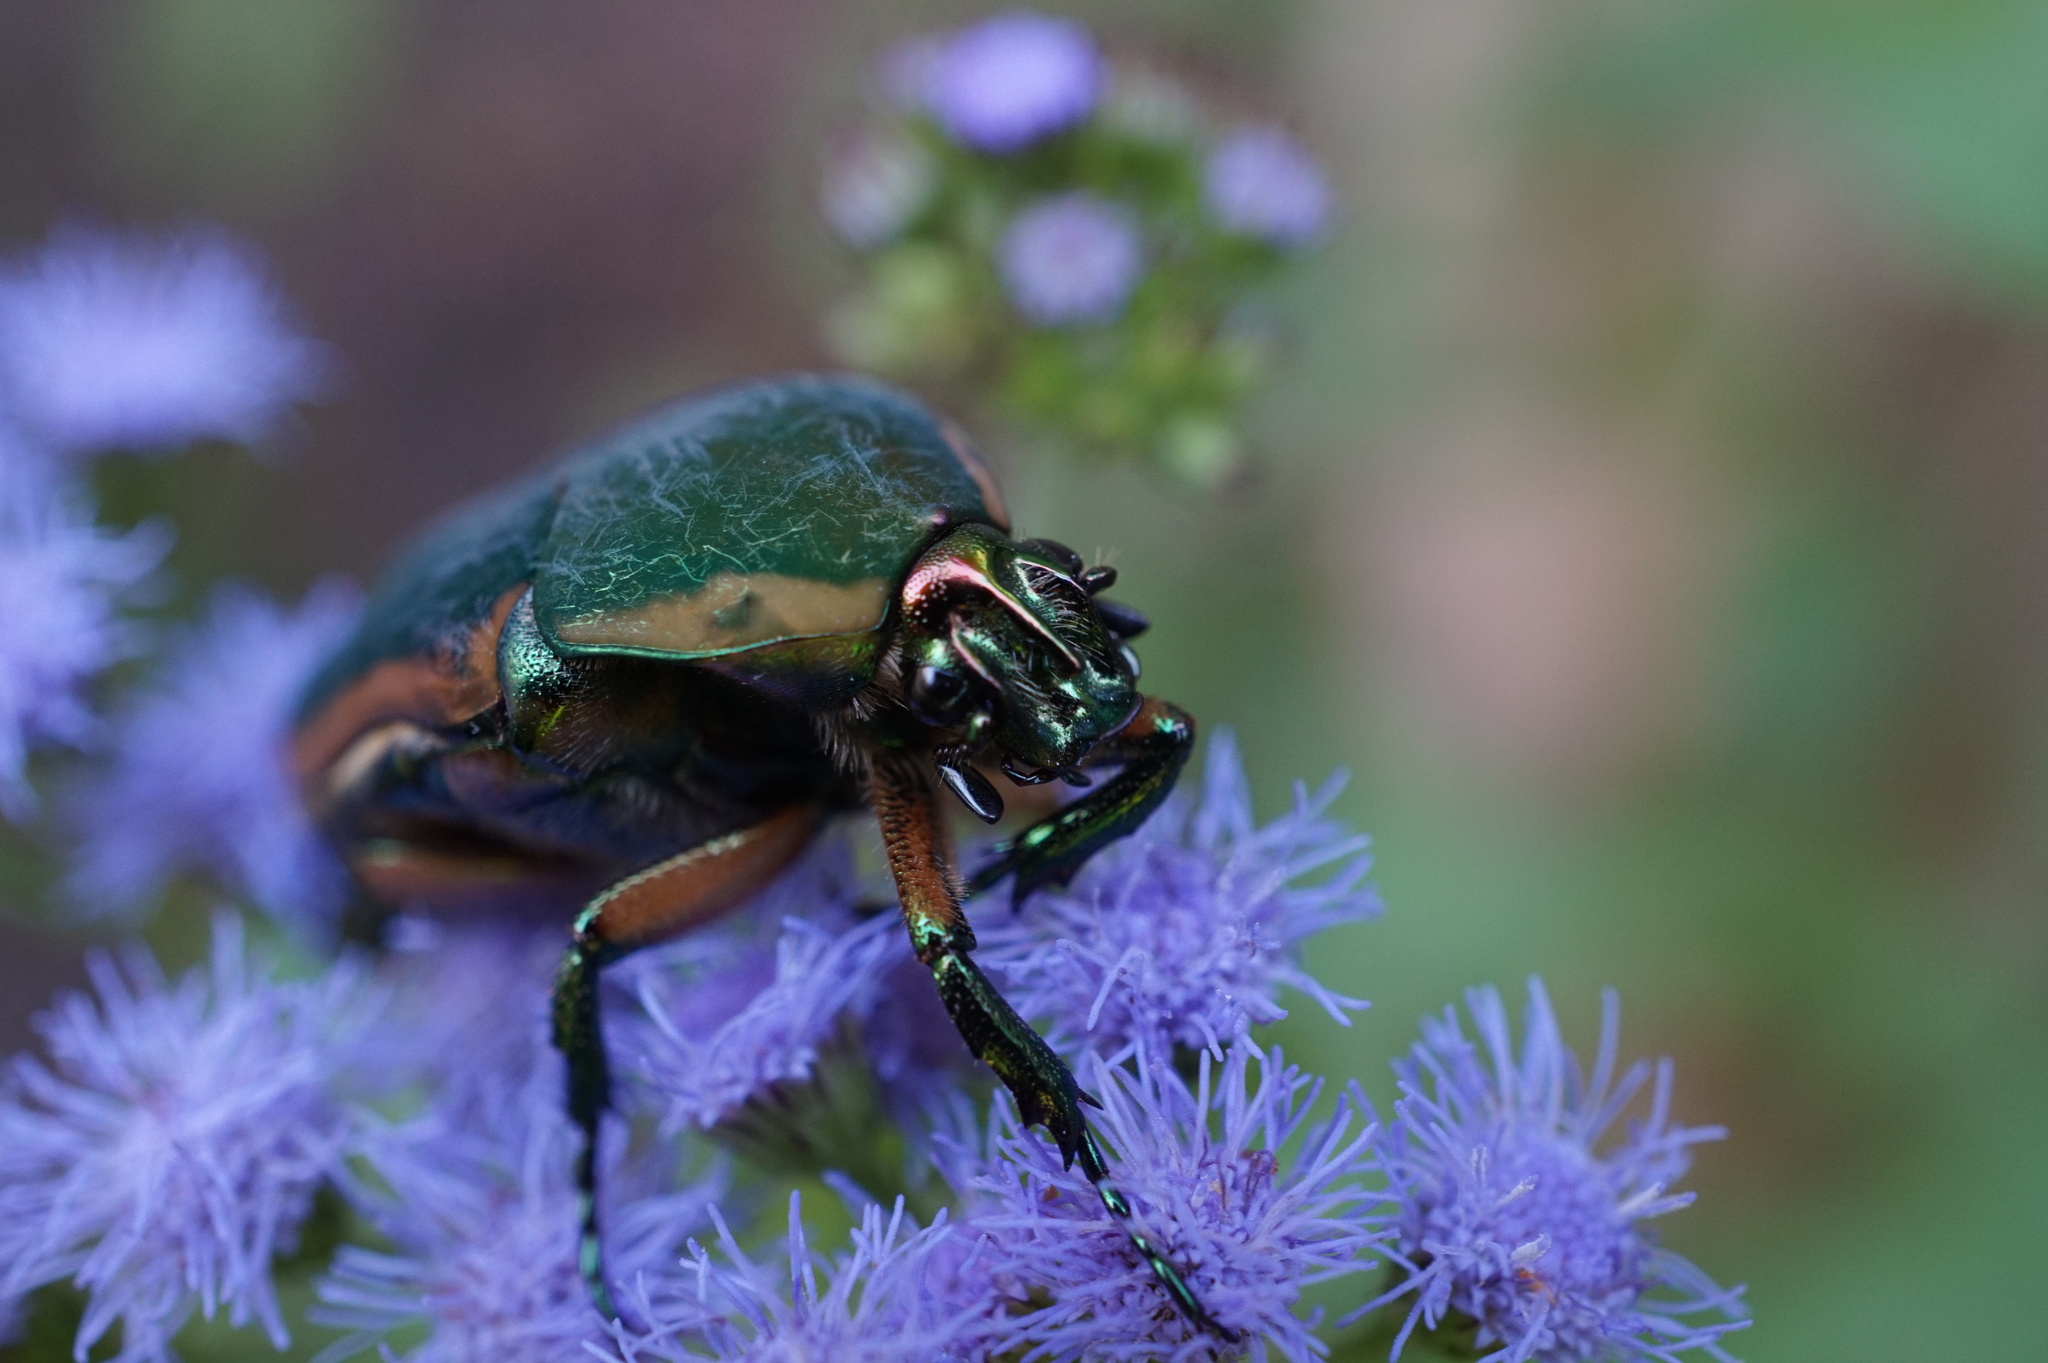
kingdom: Animalia
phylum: Arthropoda
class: Insecta
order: Coleoptera
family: Scarabaeidae
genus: Cotinis
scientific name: Cotinis nitida
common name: Common green june beetle
